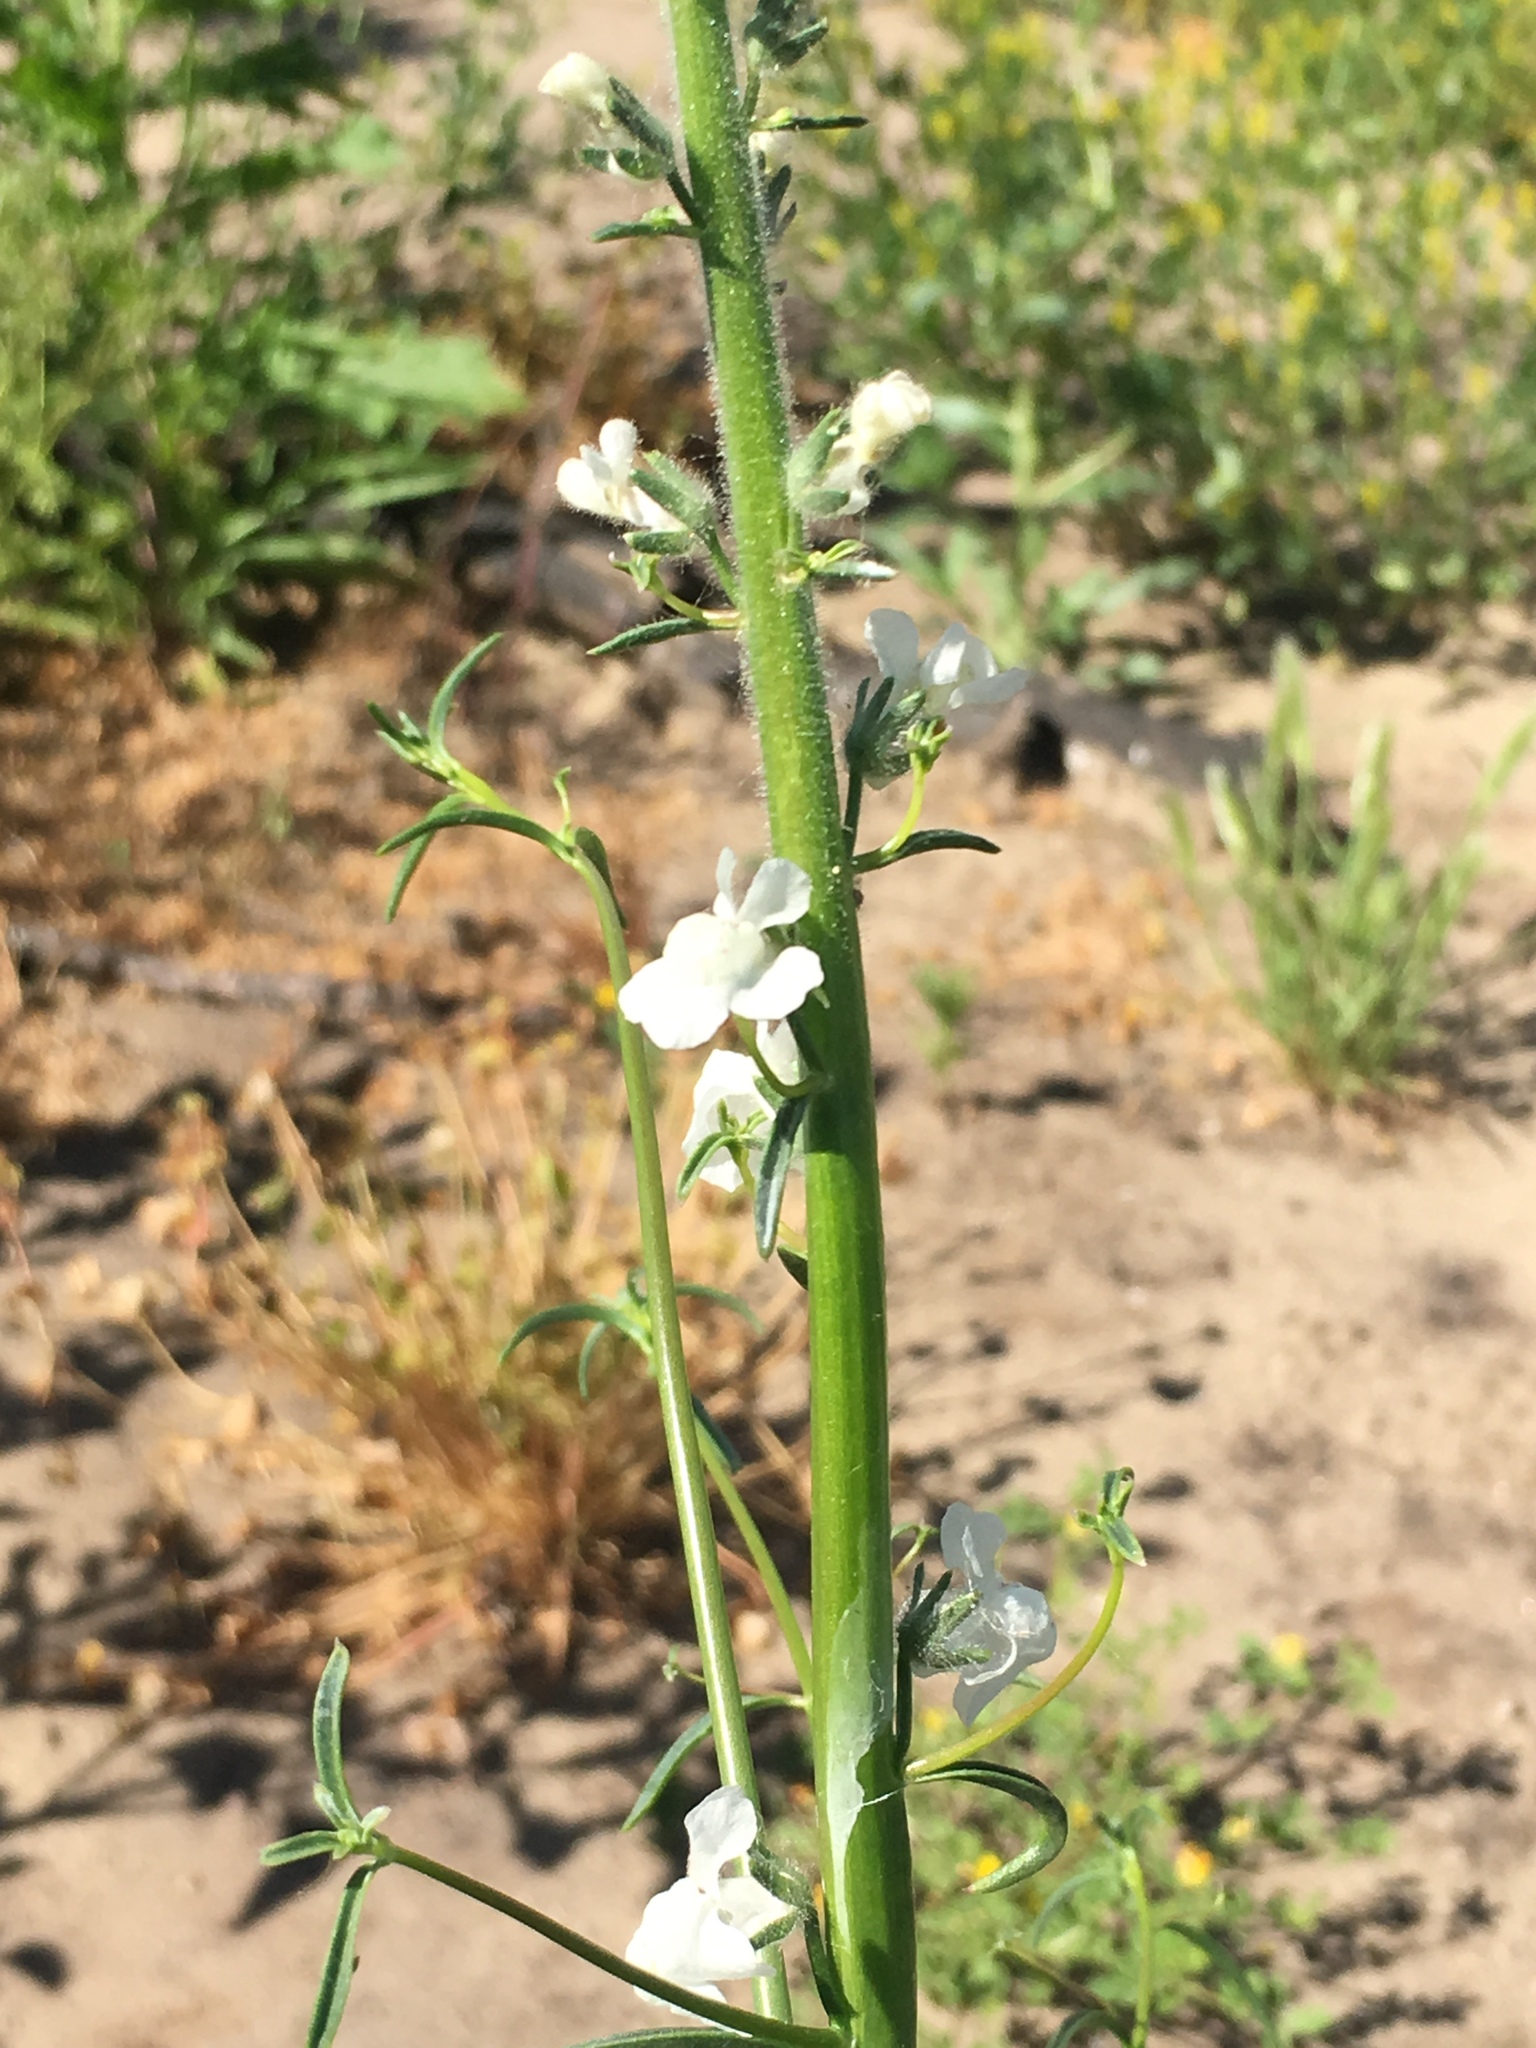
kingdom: Plantae
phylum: Tracheophyta
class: Magnoliopsida
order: Lamiales
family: Plantaginaceae
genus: Sairocarpus
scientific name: Sairocarpus coulterianus
